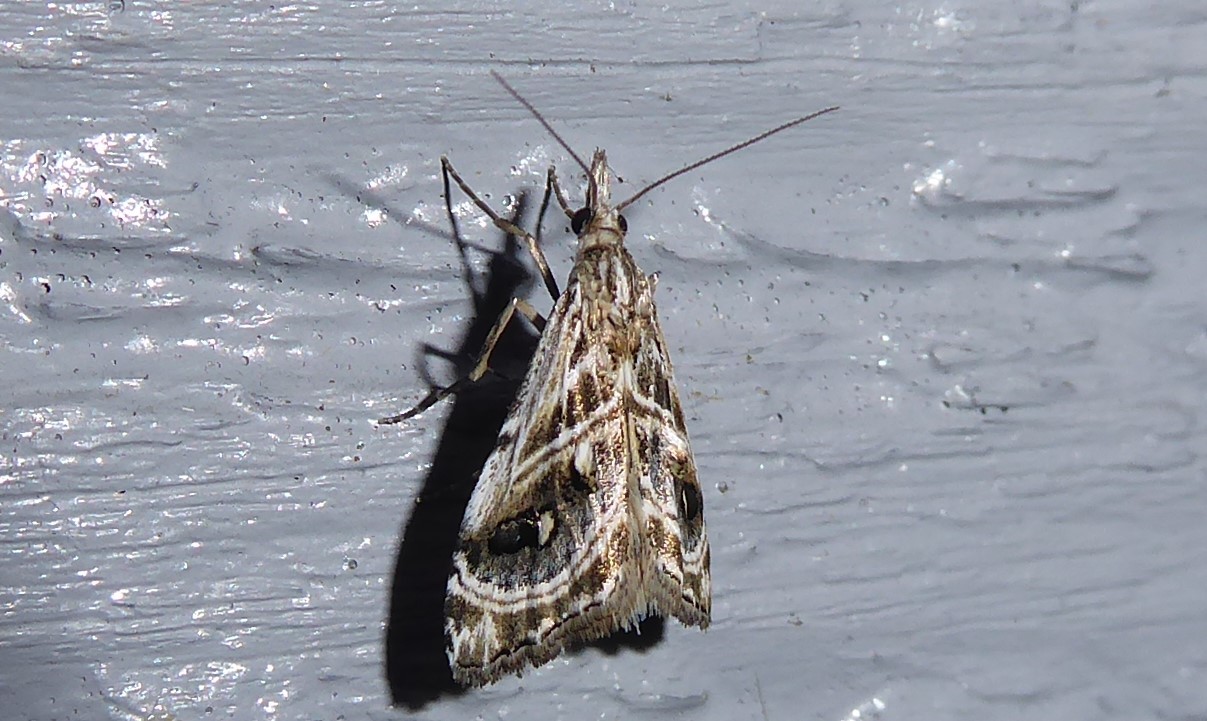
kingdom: Animalia
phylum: Arthropoda
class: Insecta
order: Lepidoptera
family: Crambidae
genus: Gadira
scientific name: Gadira acerella
